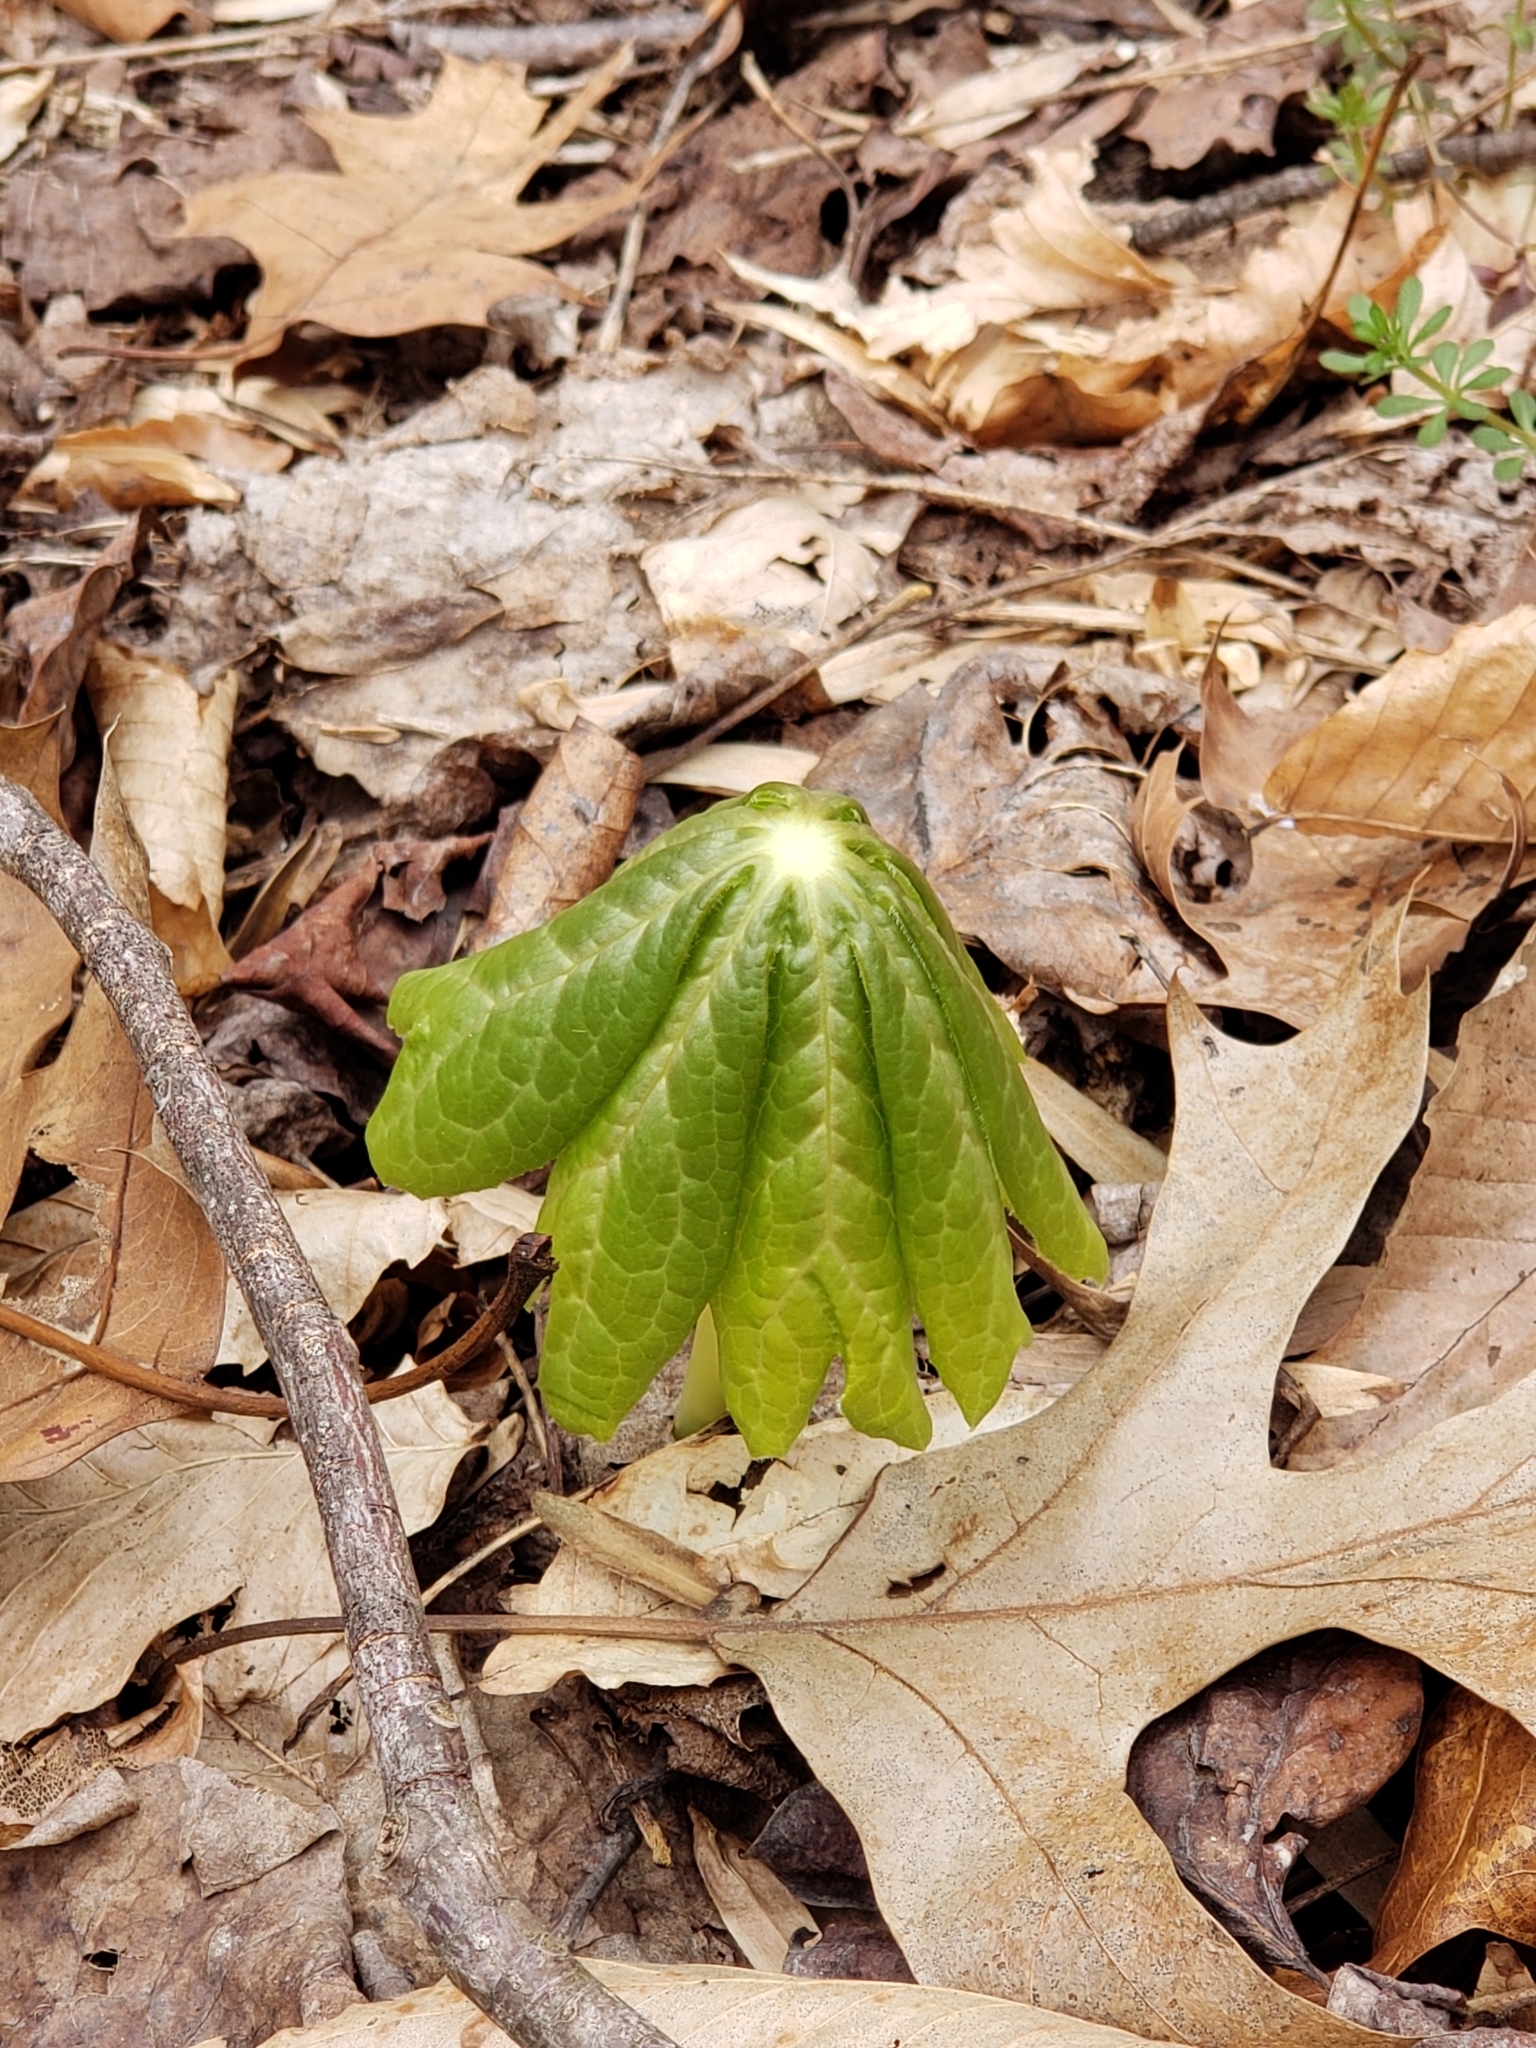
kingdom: Plantae
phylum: Tracheophyta
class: Magnoliopsida
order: Ranunculales
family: Berberidaceae
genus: Podophyllum
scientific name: Podophyllum peltatum
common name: Wild mandrake
